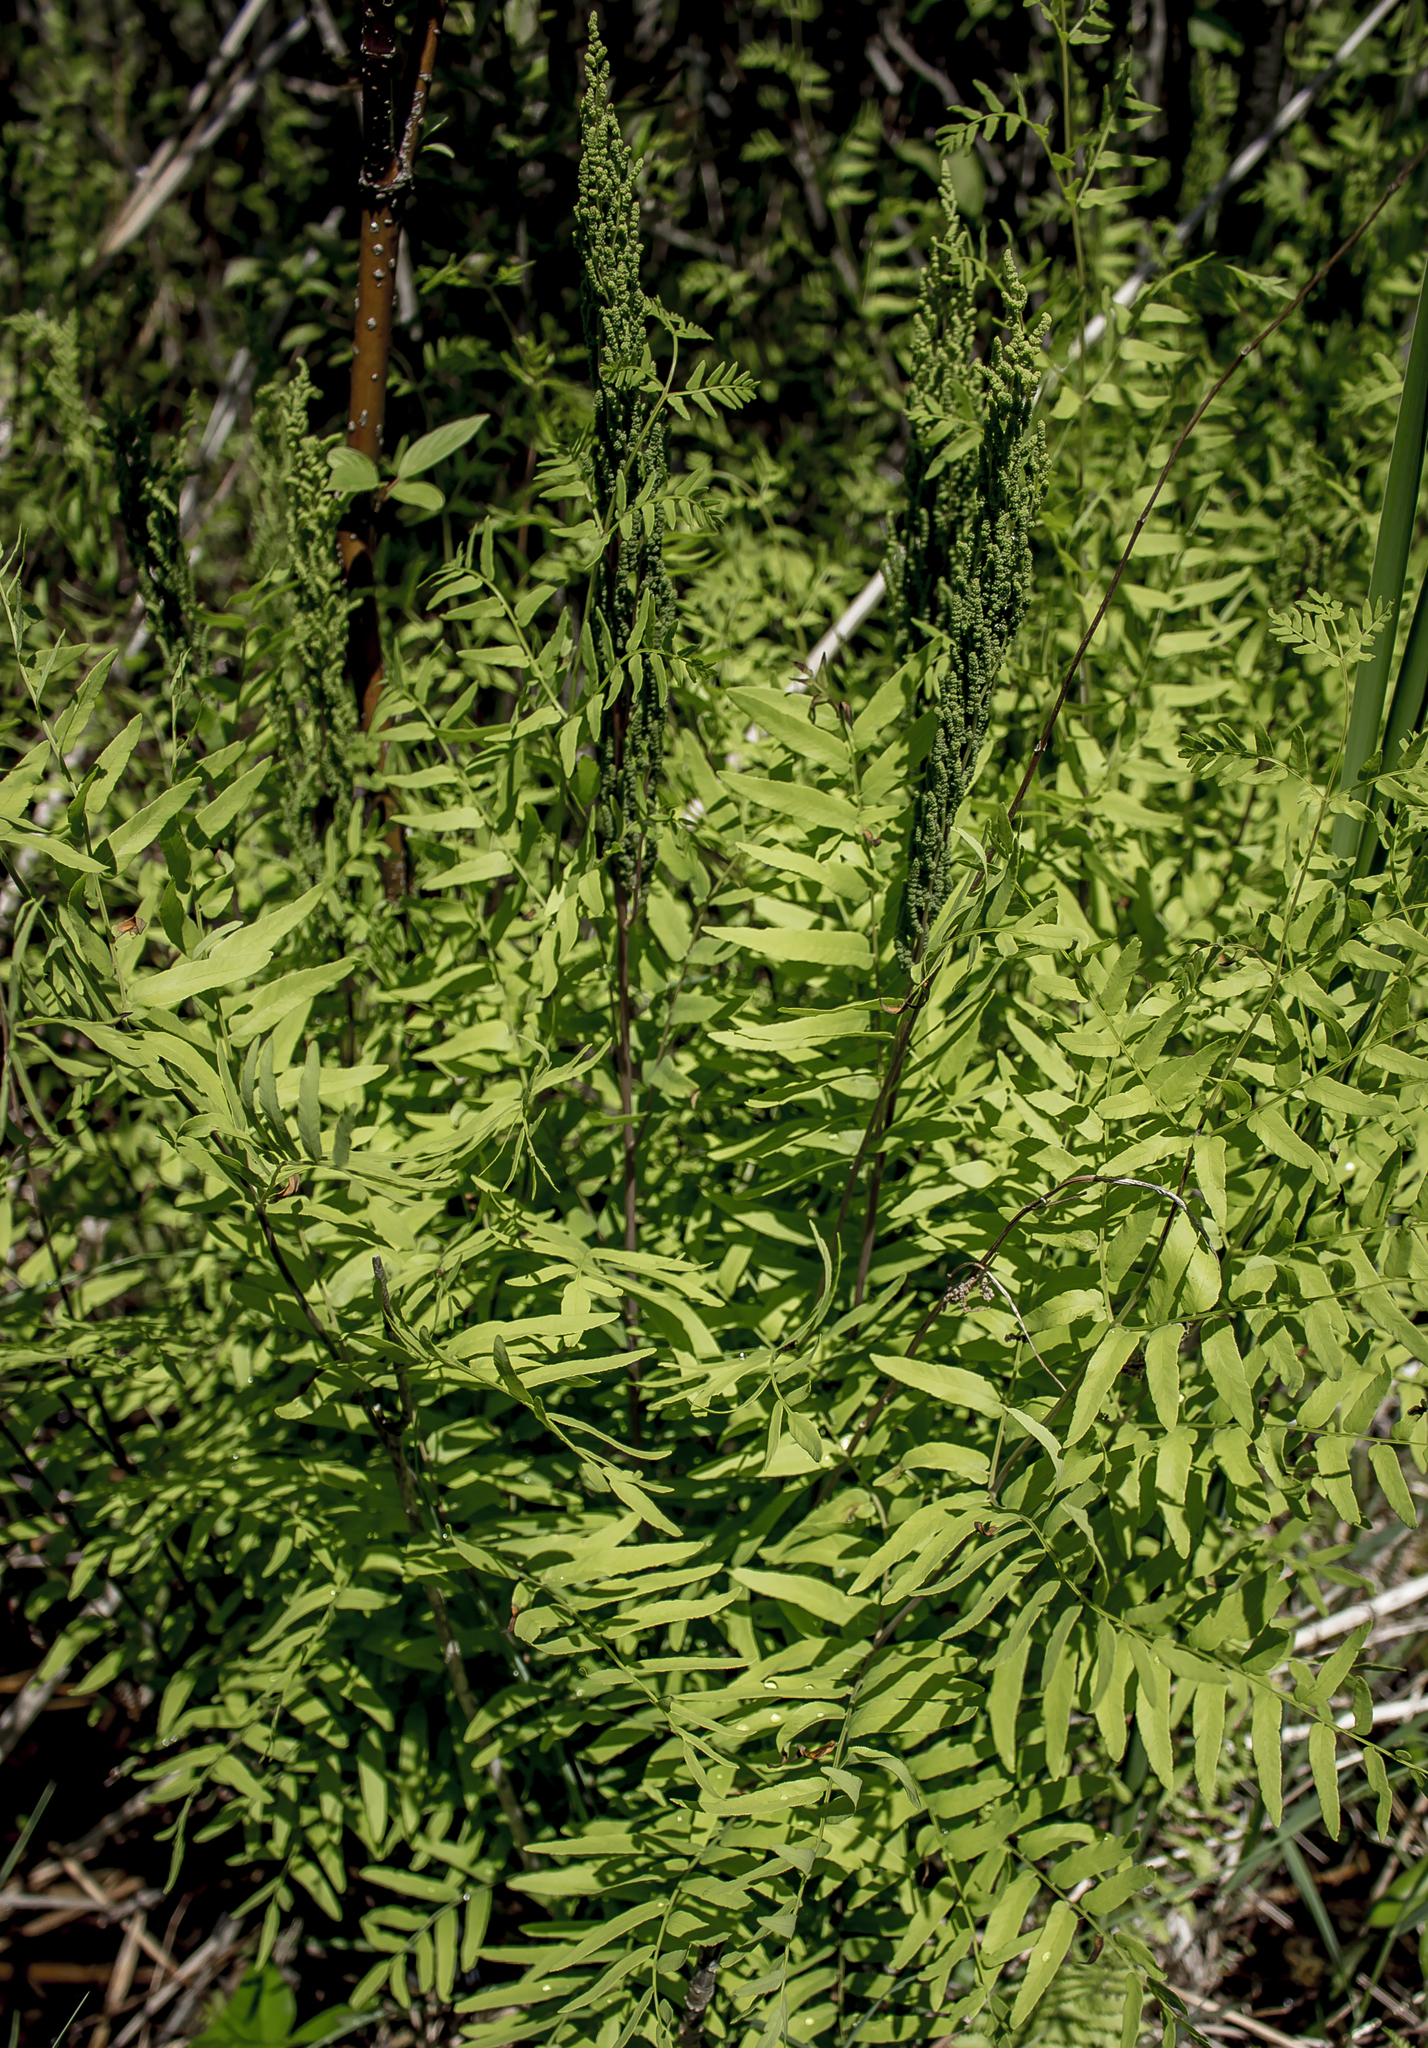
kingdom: Plantae
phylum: Tracheophyta
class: Polypodiopsida
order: Osmundales
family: Osmundaceae
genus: Osmunda
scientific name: Osmunda spectabilis
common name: American royal fern
